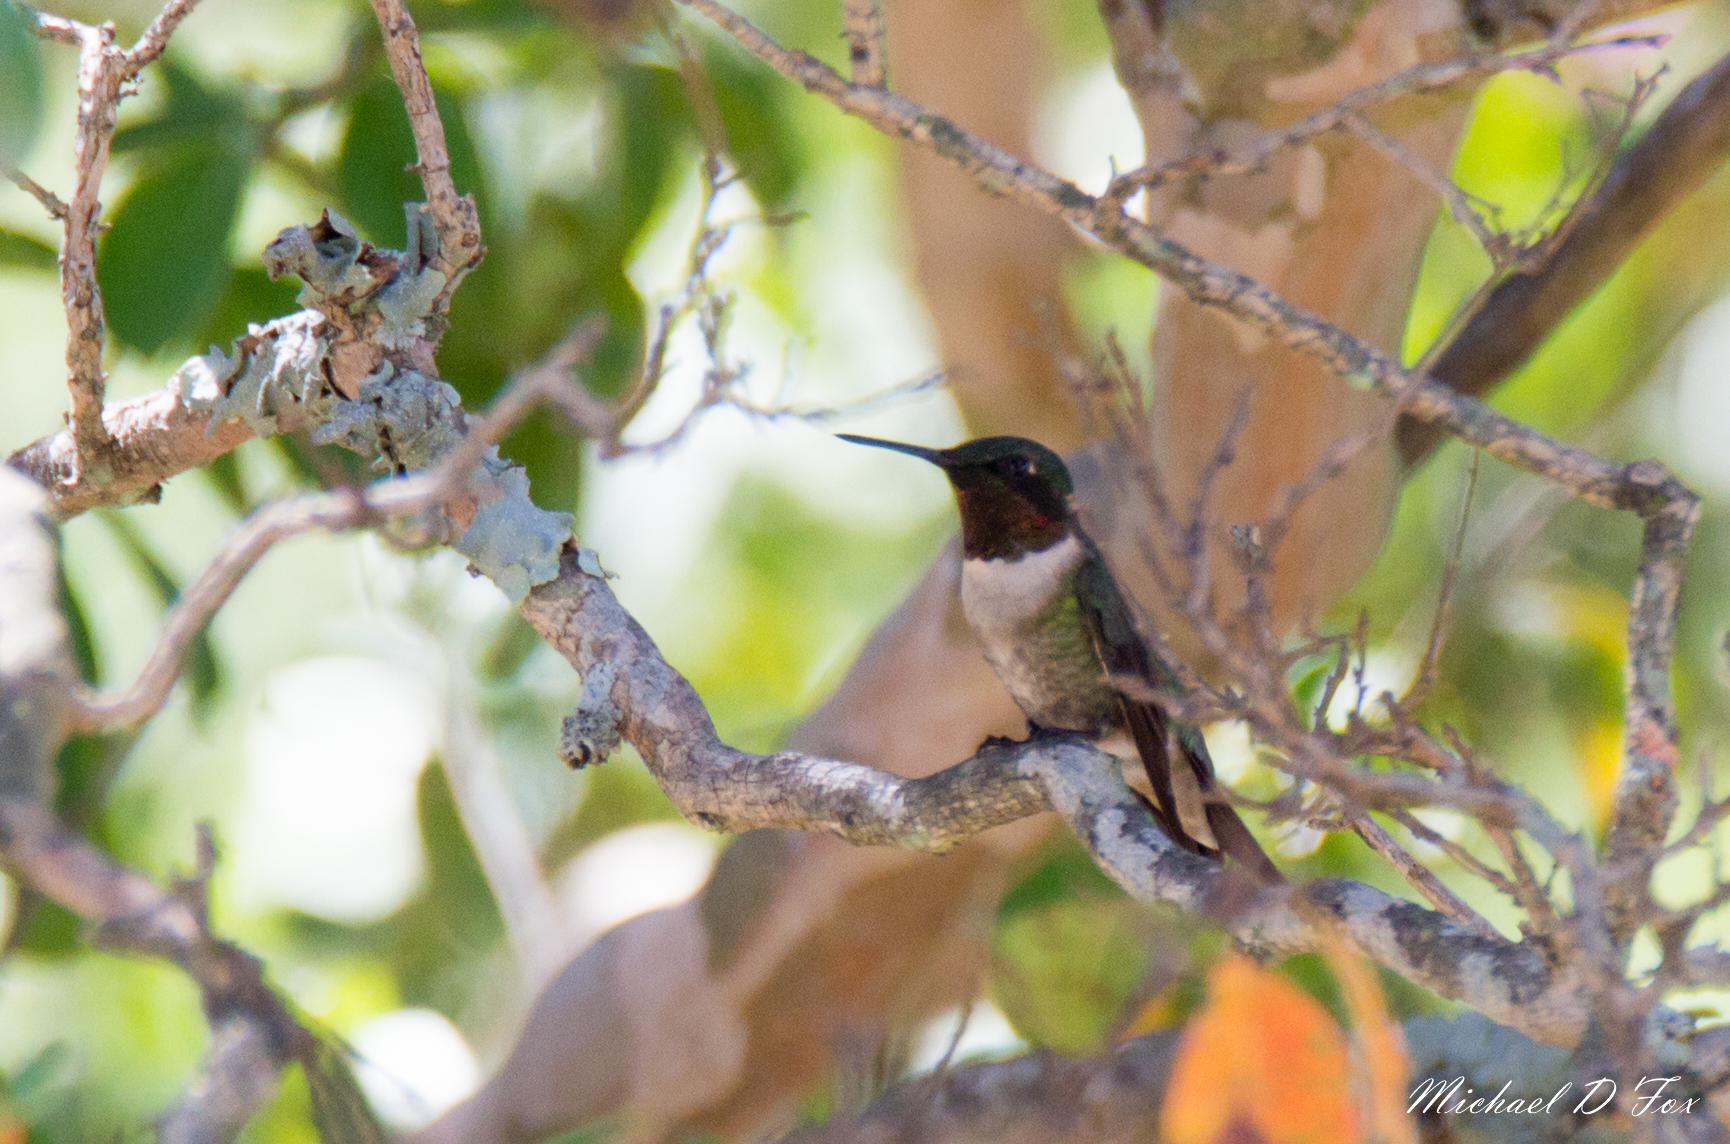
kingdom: Animalia
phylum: Chordata
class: Aves
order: Apodiformes
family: Trochilidae
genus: Archilochus
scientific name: Archilochus colubris
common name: Ruby-throated hummingbird
